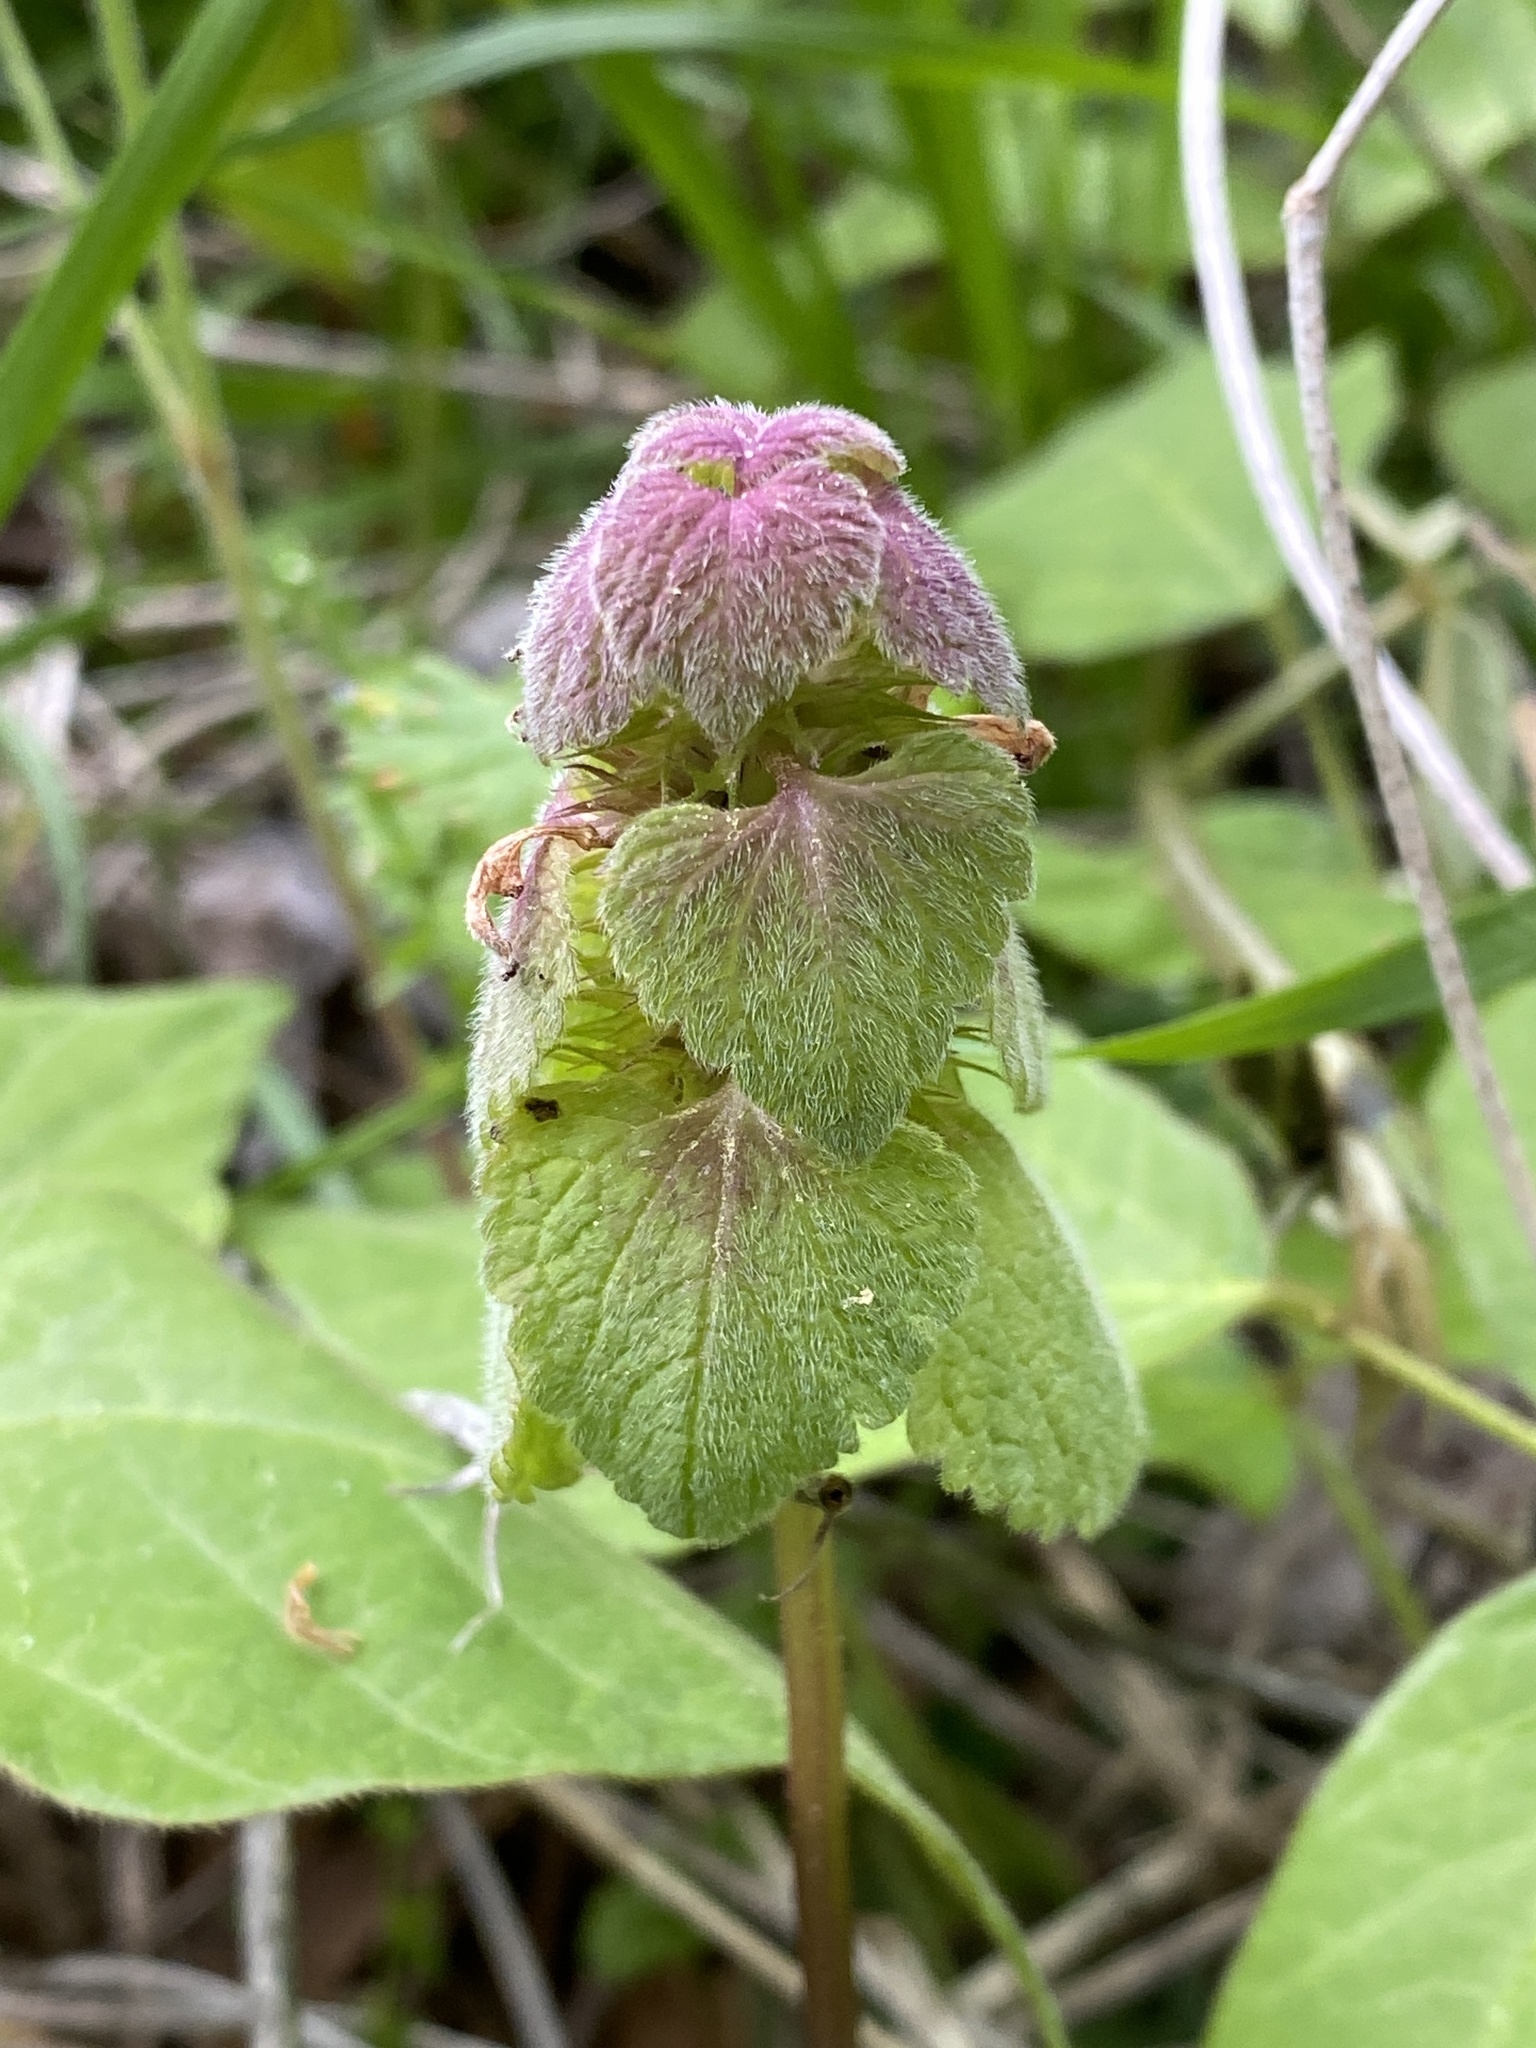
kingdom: Plantae
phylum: Tracheophyta
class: Magnoliopsida
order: Lamiales
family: Lamiaceae
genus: Lamium
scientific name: Lamium purpureum
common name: Red dead-nettle
